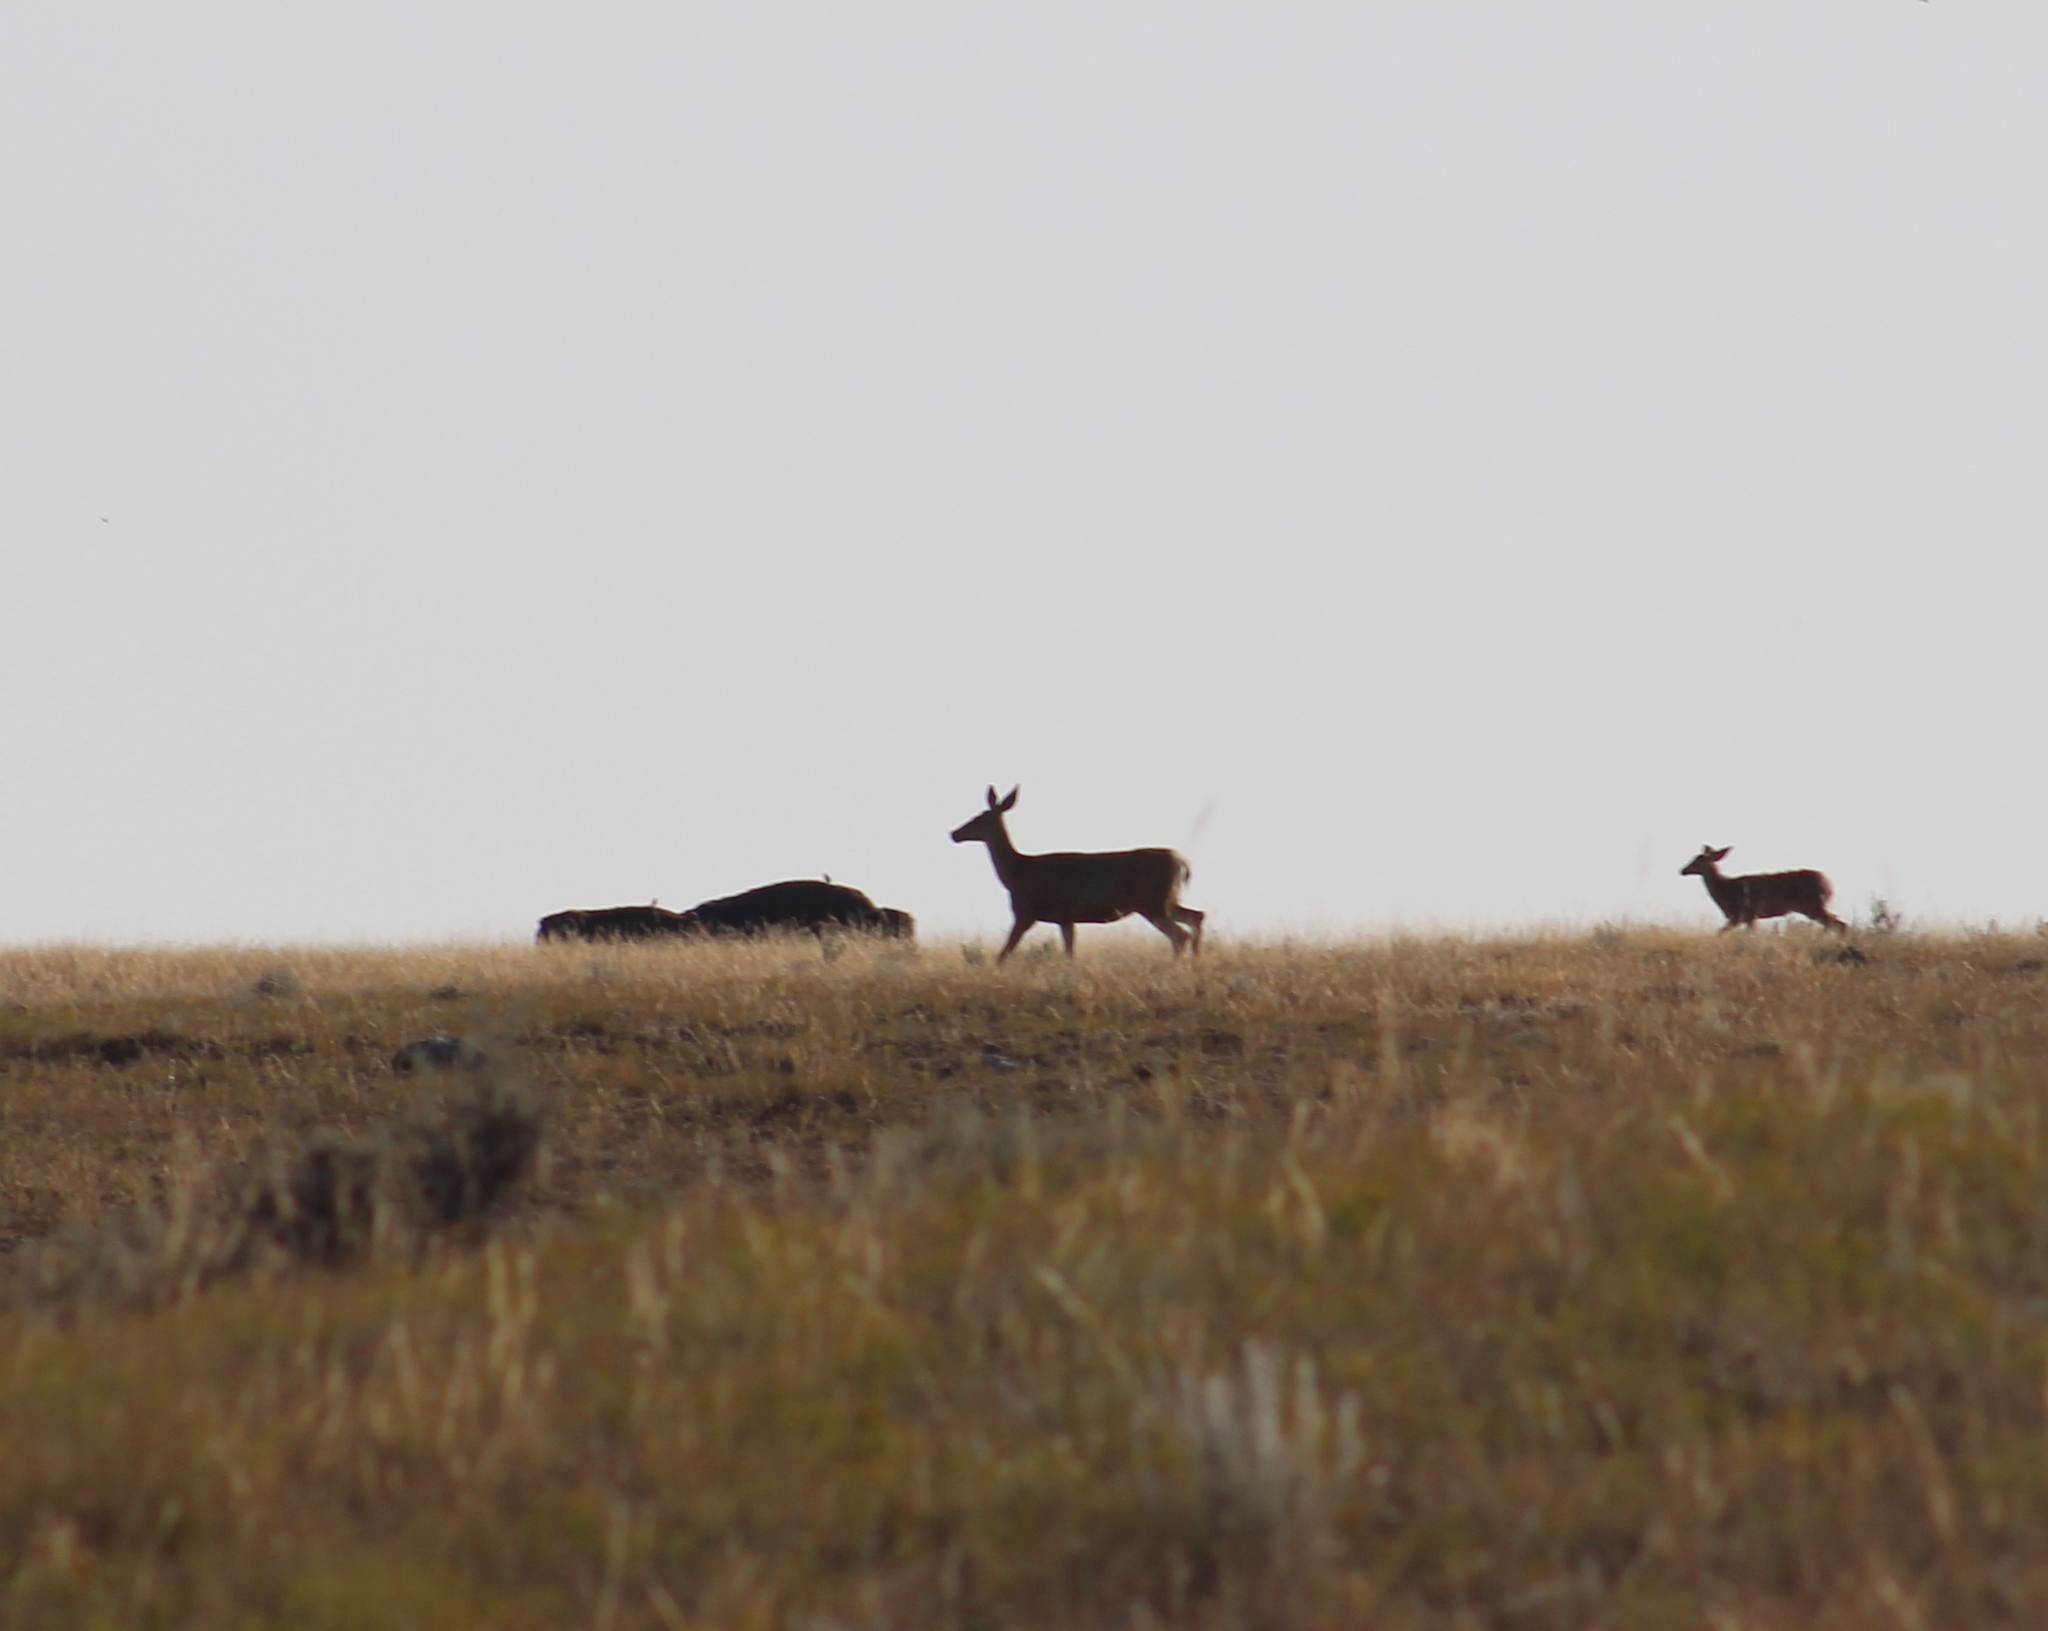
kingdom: Animalia
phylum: Chordata
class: Mammalia
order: Artiodactyla
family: Cervidae
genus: Odocoileus
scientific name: Odocoileus hemionus
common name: Mule deer
